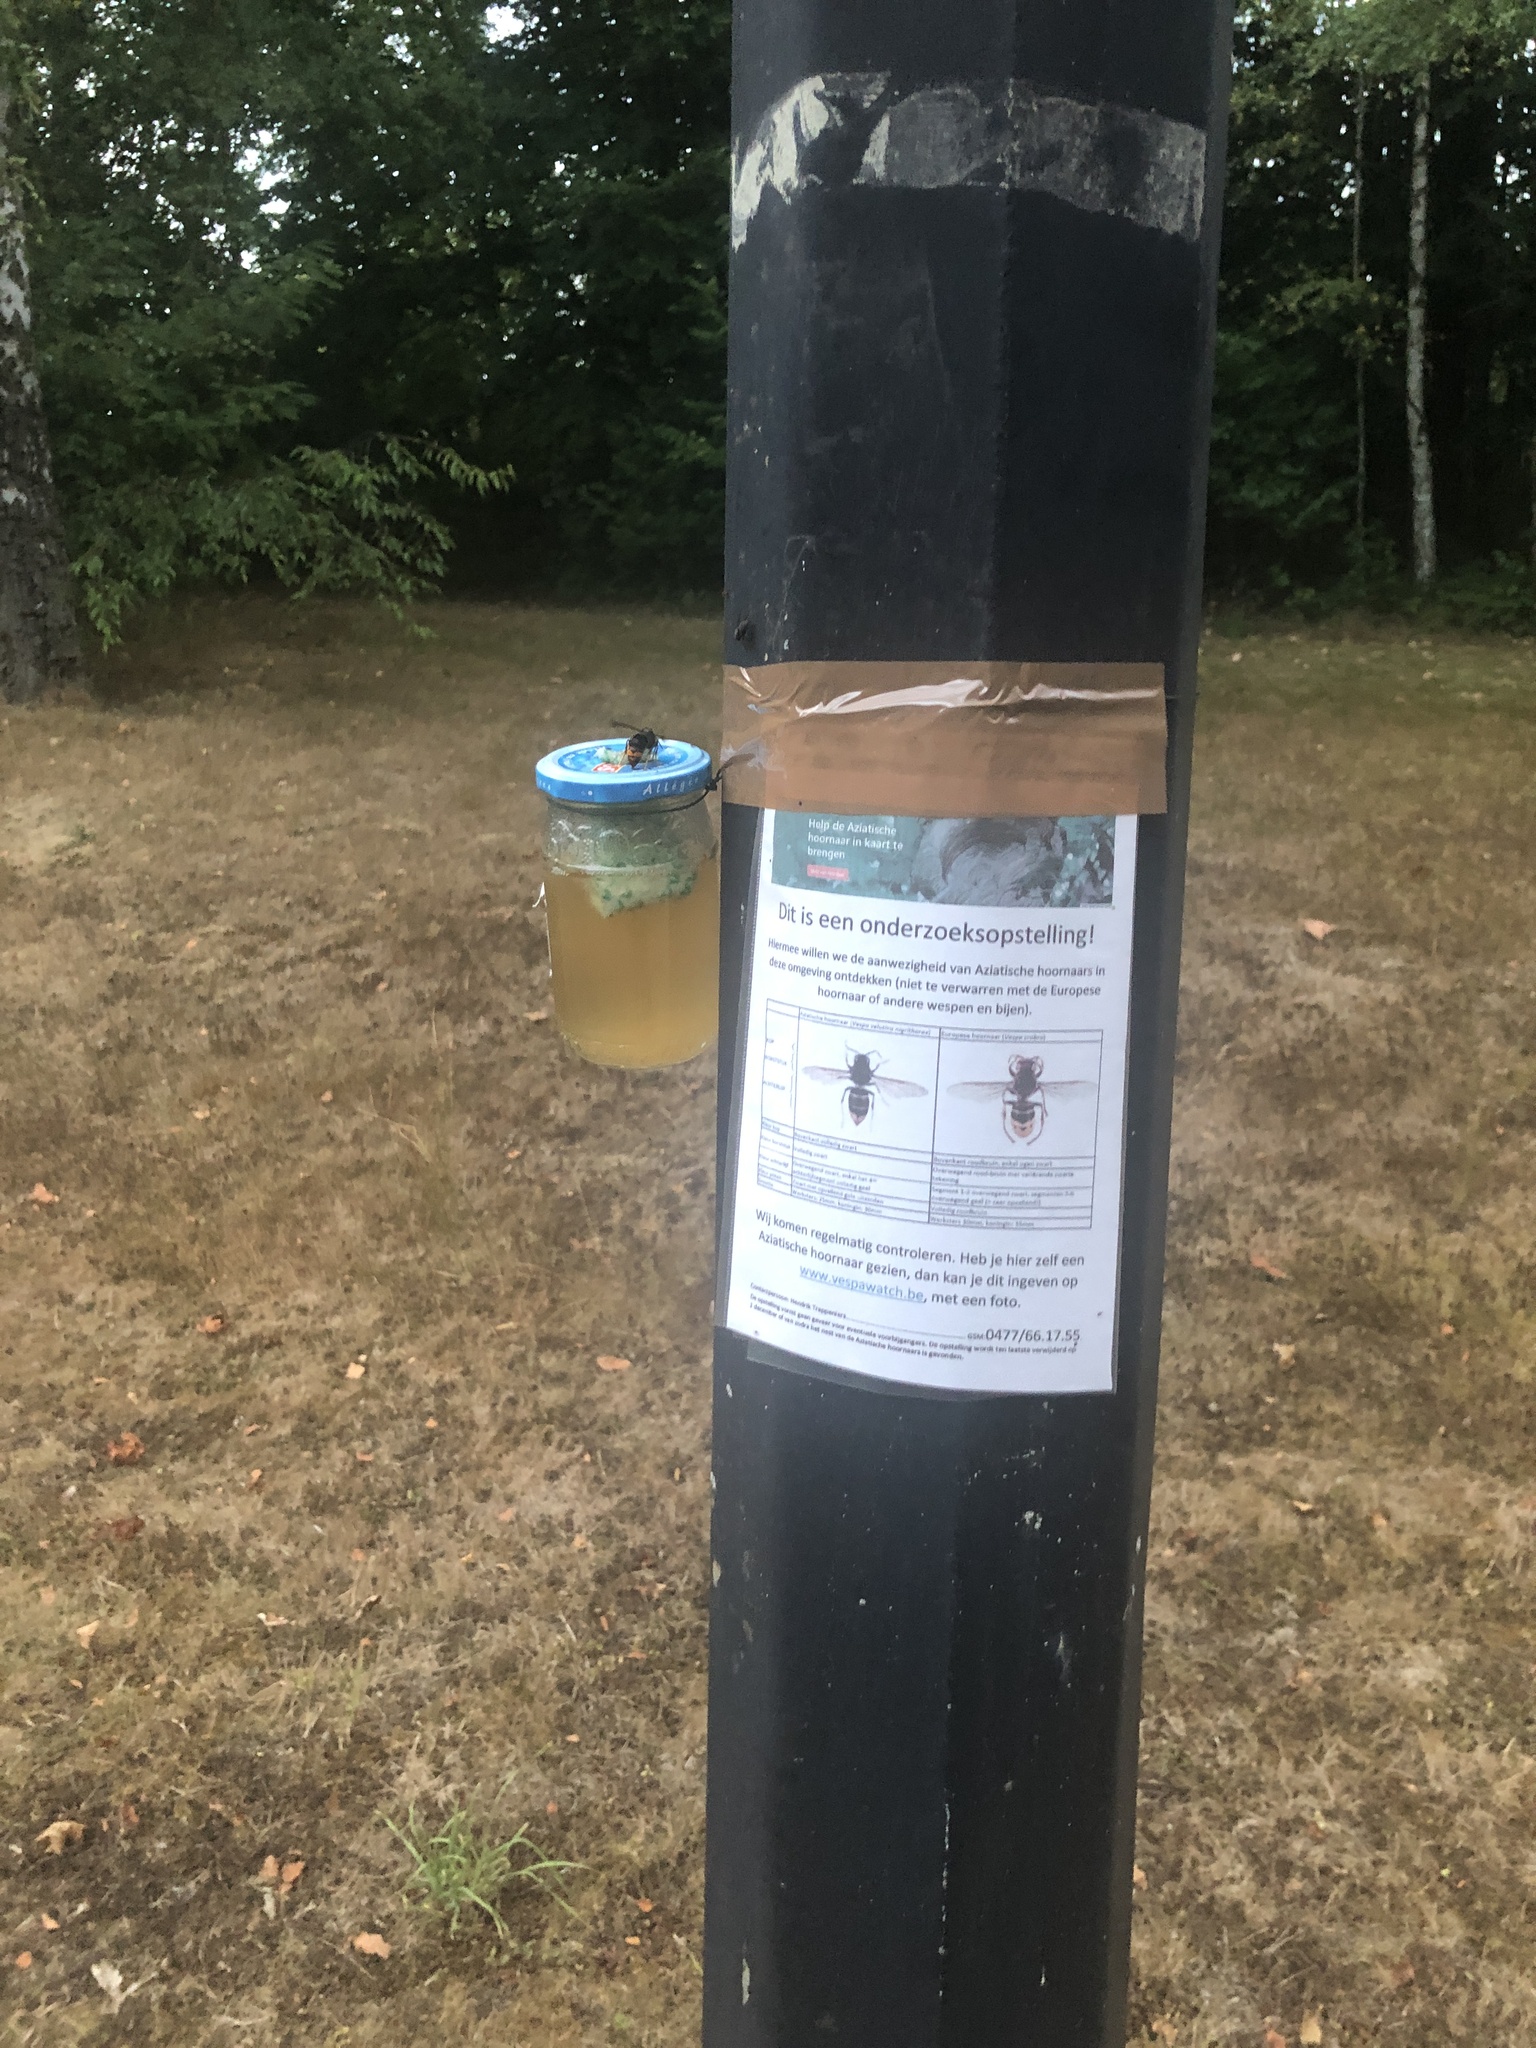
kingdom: Animalia
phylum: Arthropoda
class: Insecta
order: Hymenoptera
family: Vespidae
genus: Vespa
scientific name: Vespa velutina
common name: Asian hornet
